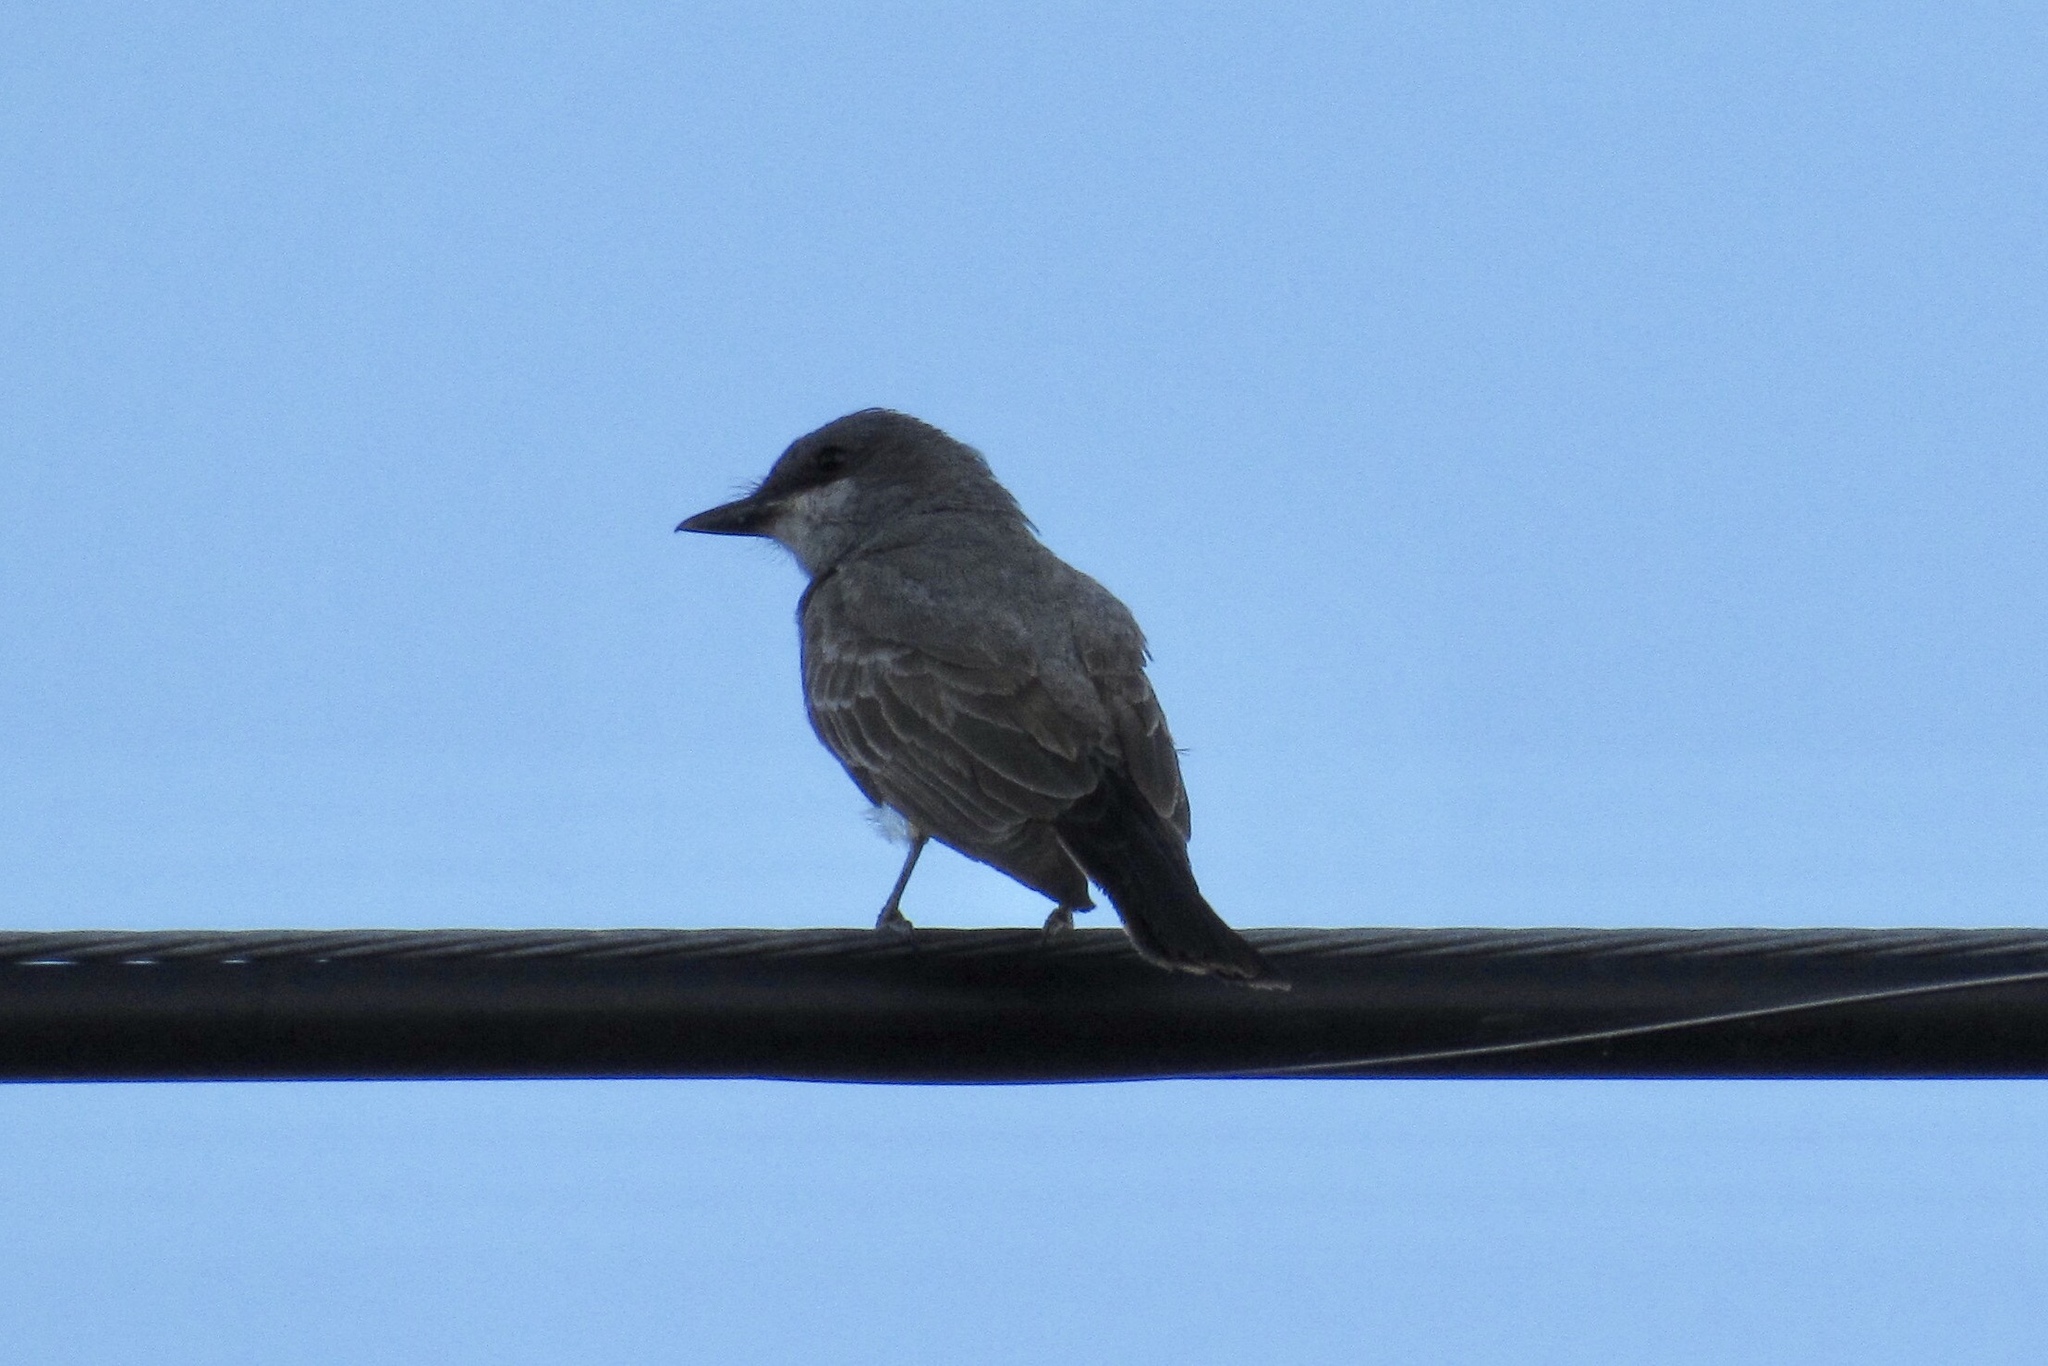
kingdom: Animalia
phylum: Chordata
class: Aves
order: Passeriformes
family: Tyrannidae
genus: Tyrannus
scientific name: Tyrannus vociferans
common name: Cassin's kingbird
